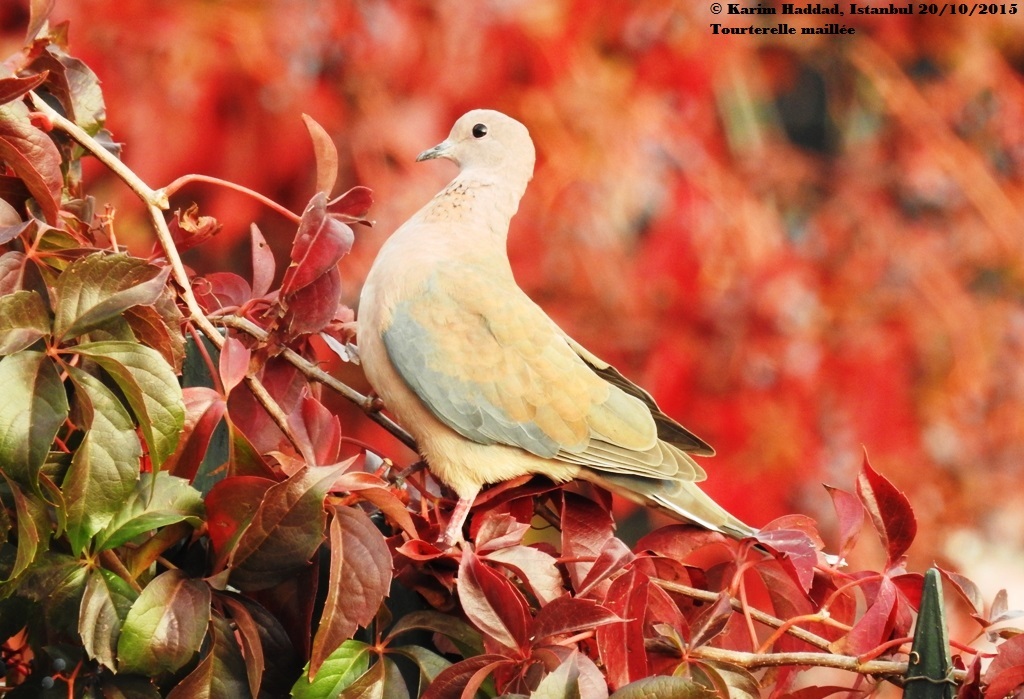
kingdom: Animalia
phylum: Chordata
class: Aves
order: Columbiformes
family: Columbidae
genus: Spilopelia
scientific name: Spilopelia senegalensis
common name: Laughing dove
